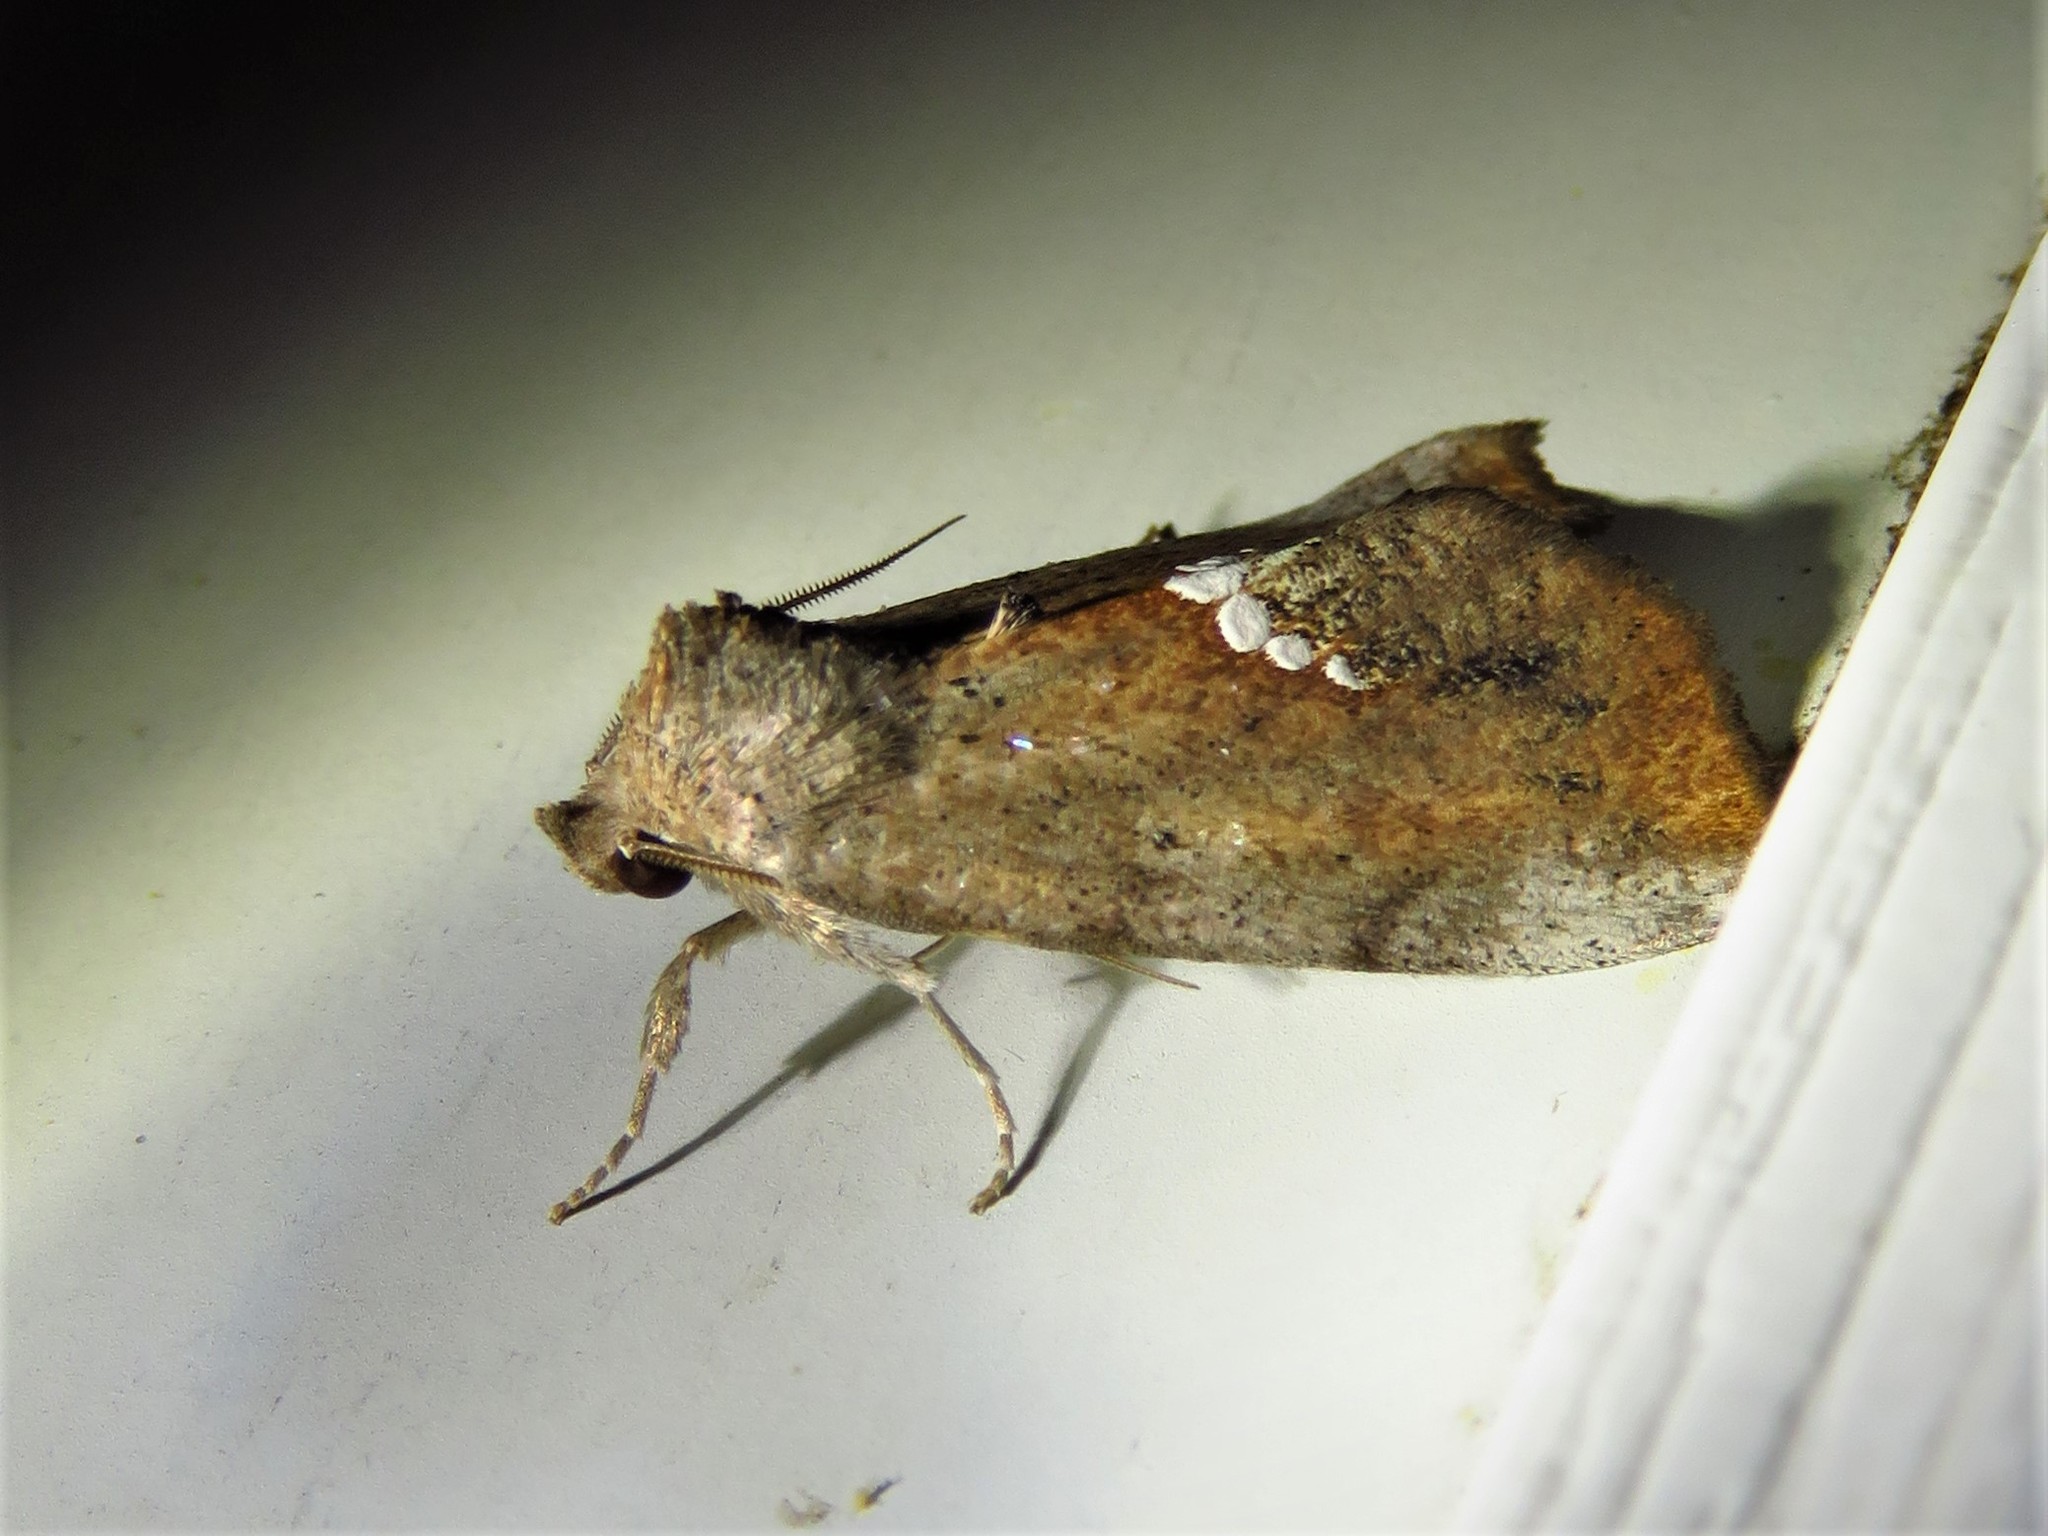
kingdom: Animalia
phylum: Arthropoda
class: Insecta
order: Lepidoptera
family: Erebidae
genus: Hypsoropha
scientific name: Hypsoropha hormos
